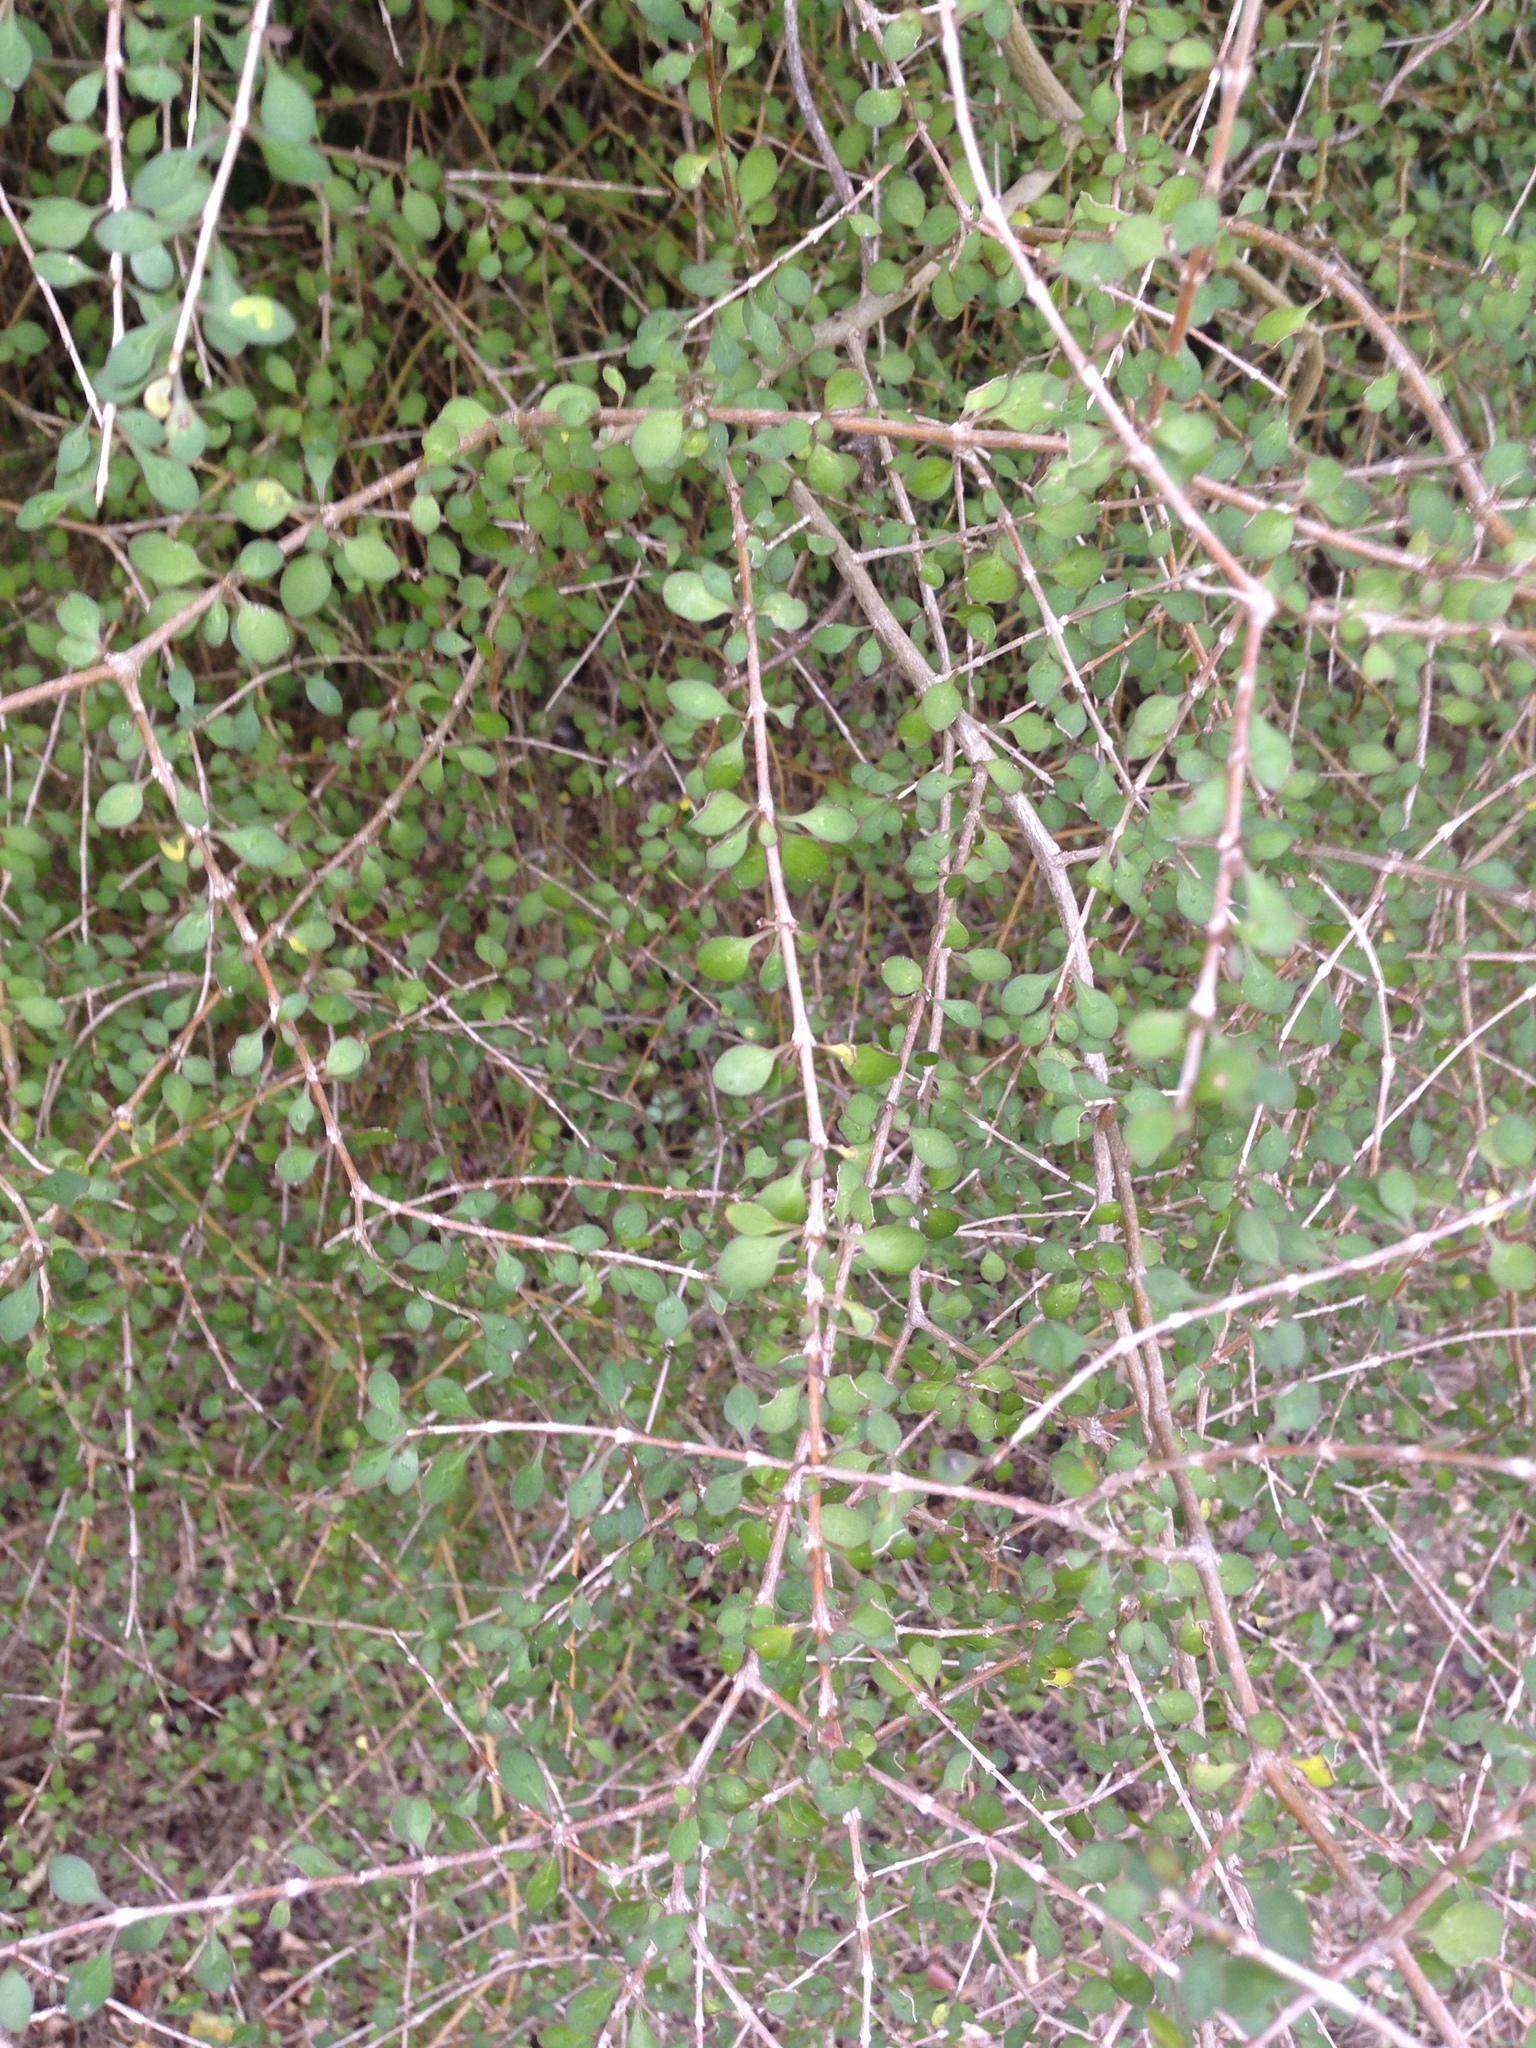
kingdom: Plantae
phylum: Tracheophyta
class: Magnoliopsida
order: Gentianales
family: Rubiaceae
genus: Coprosma
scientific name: Coprosma virescens
